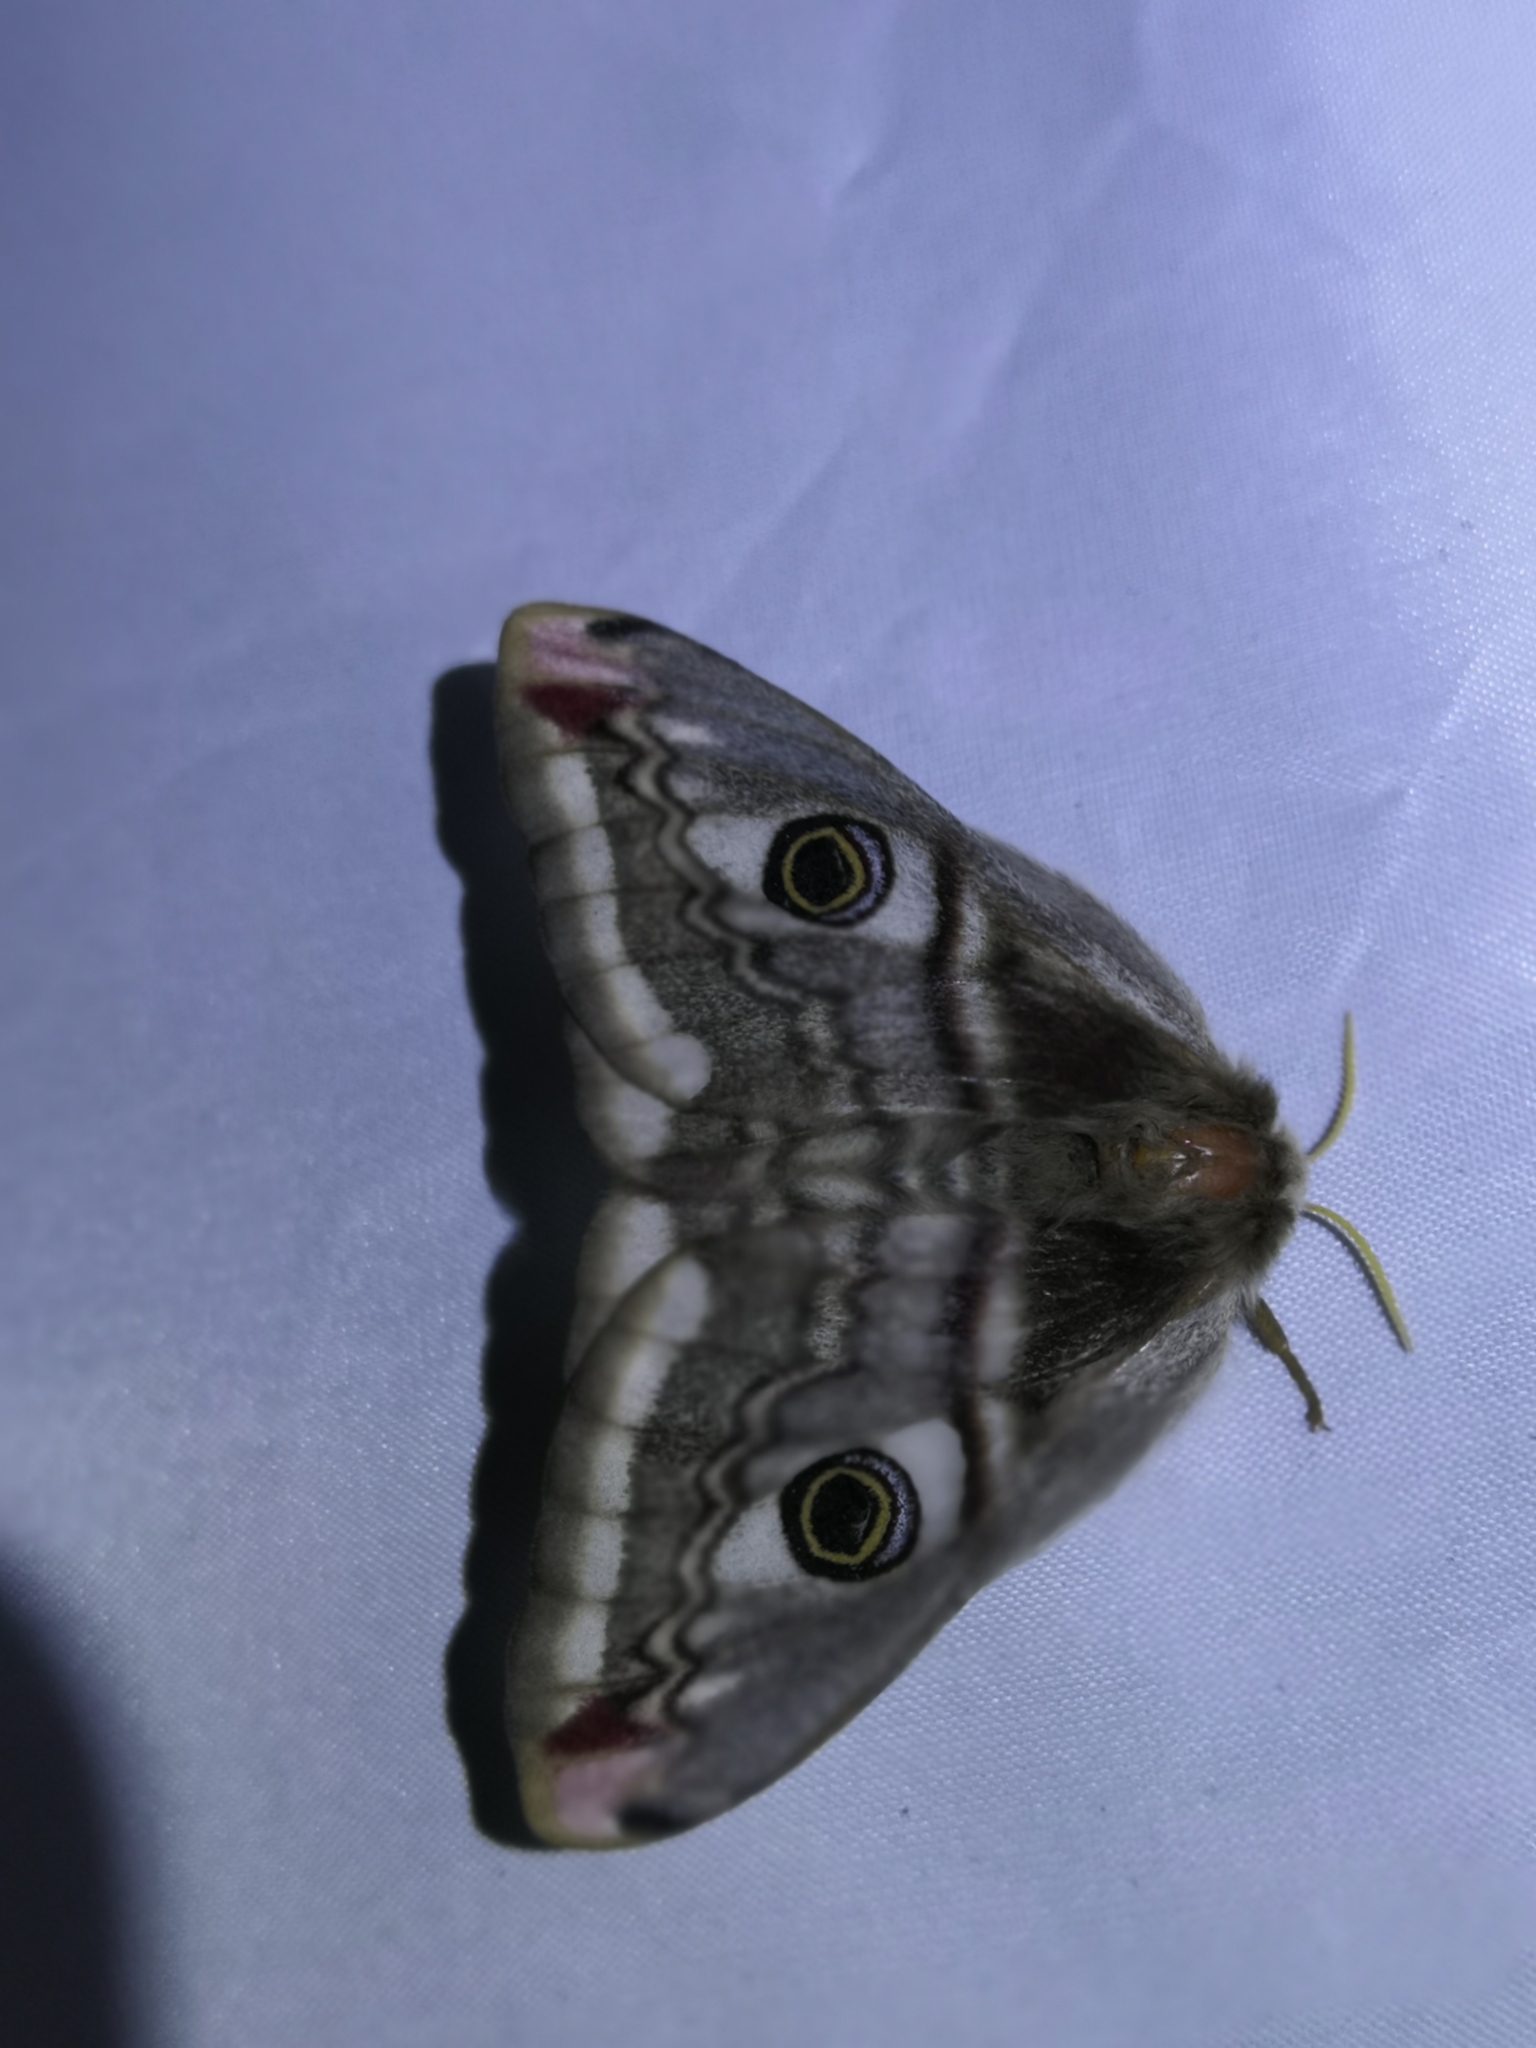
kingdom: Animalia
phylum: Arthropoda
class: Insecta
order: Lepidoptera
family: Saturniidae
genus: Saturnia
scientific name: Saturnia pavonia
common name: Emperor moth
